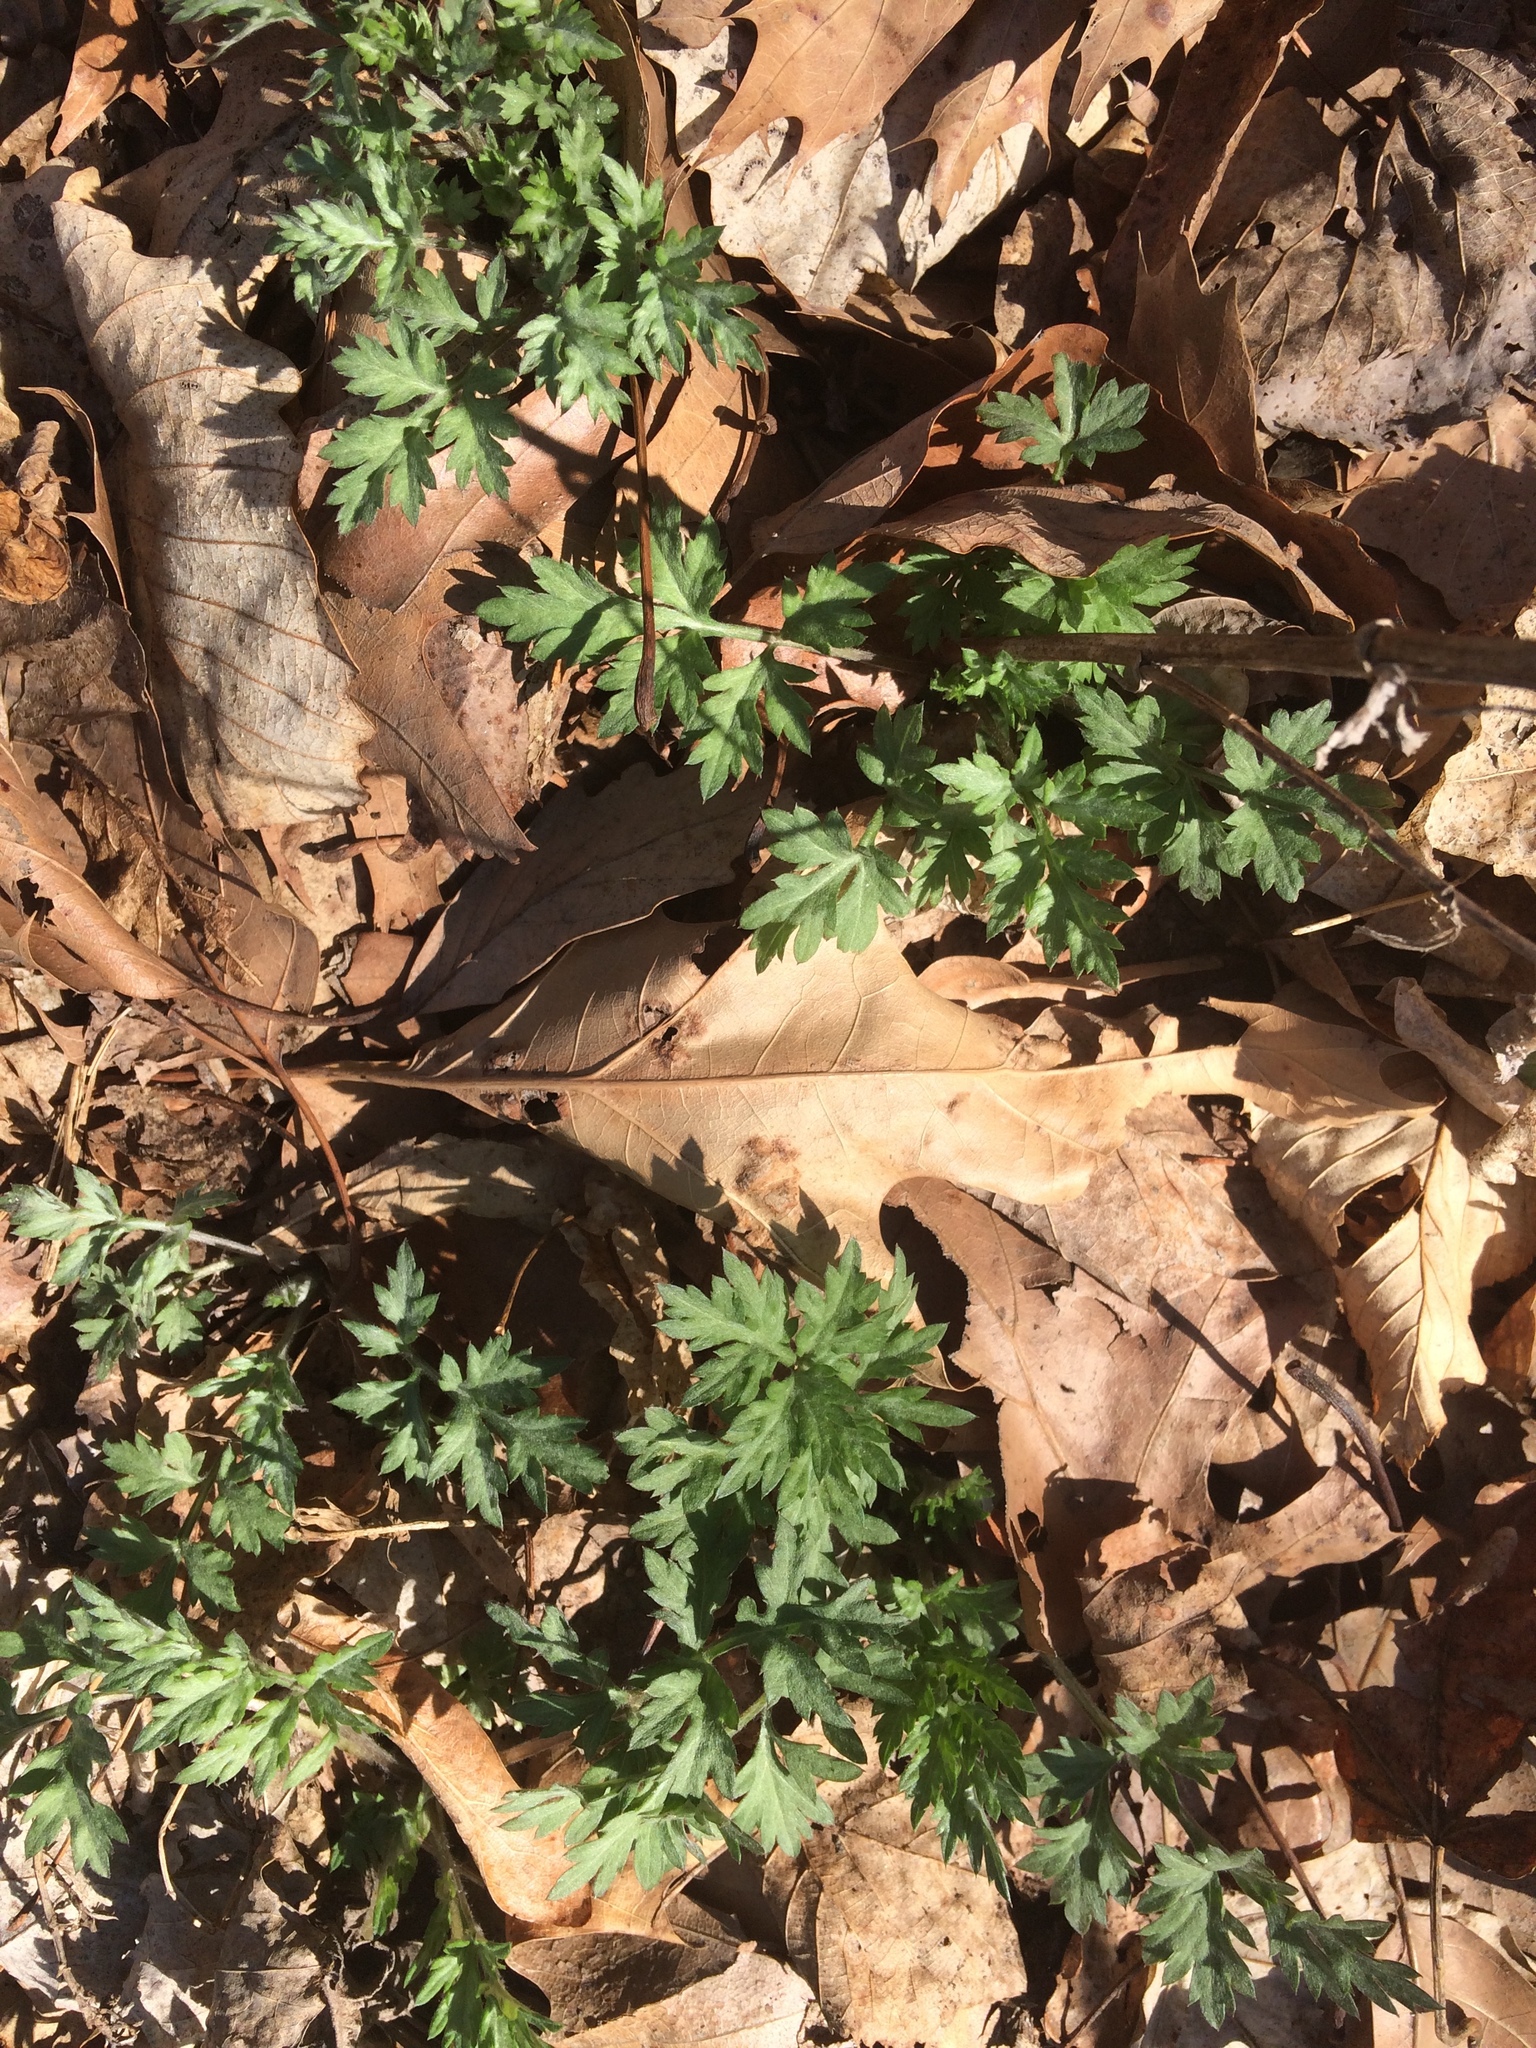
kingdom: Plantae
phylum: Tracheophyta
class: Magnoliopsida
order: Asterales
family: Asteraceae
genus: Artemisia
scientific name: Artemisia vulgaris
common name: Mugwort
